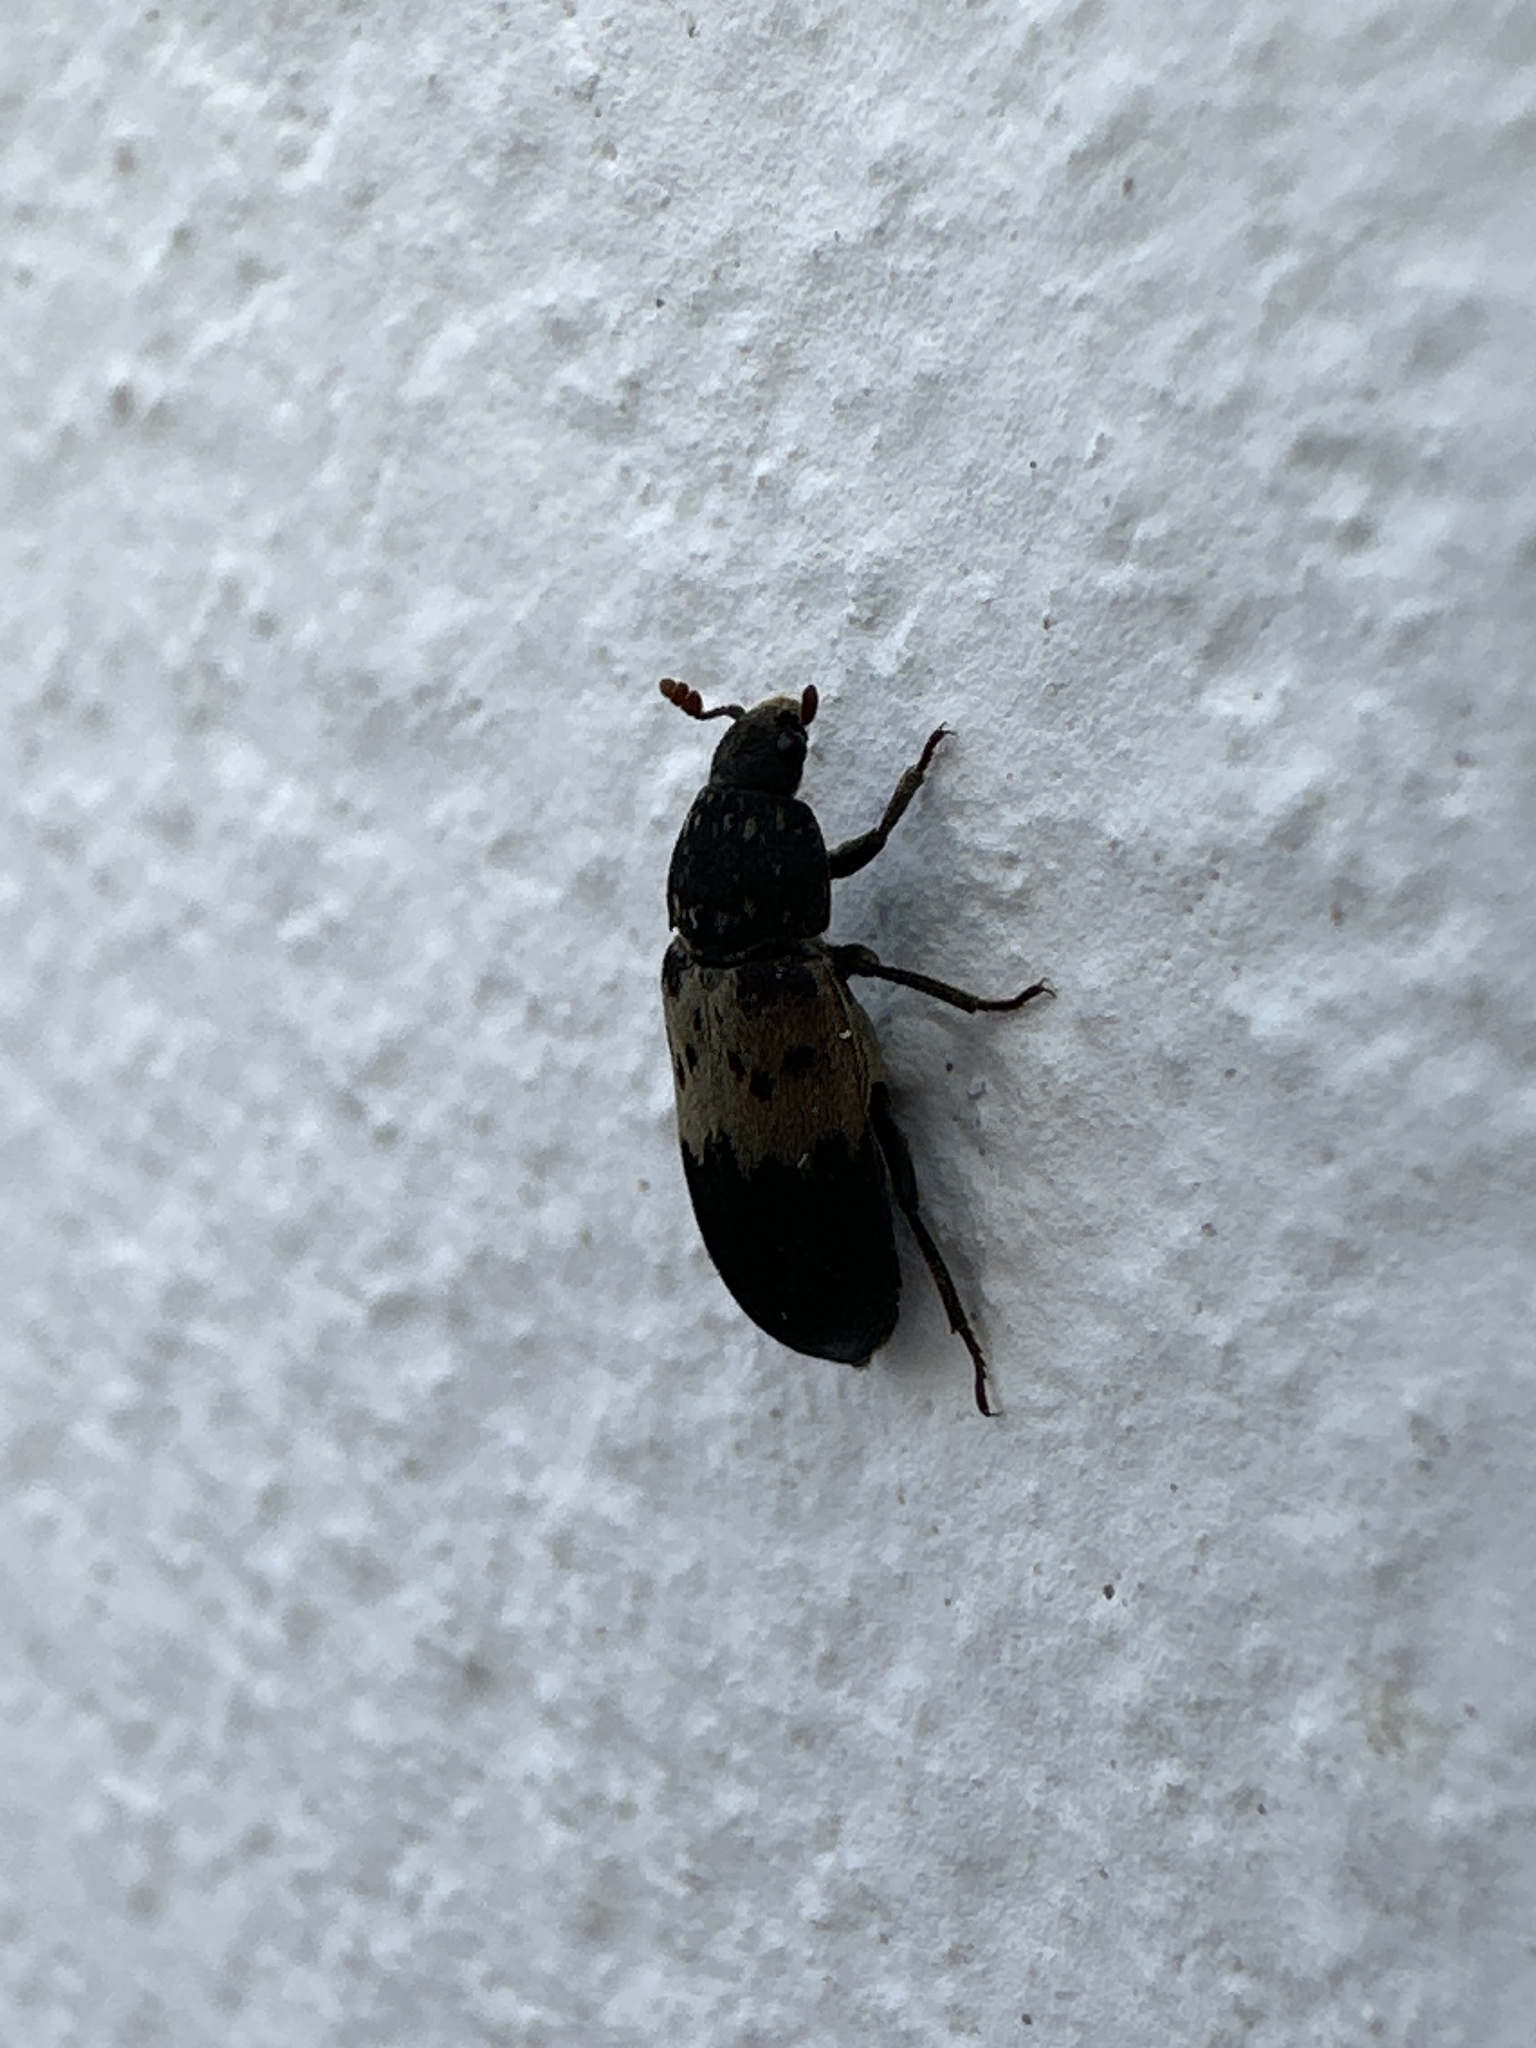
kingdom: Animalia
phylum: Arthropoda
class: Insecta
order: Coleoptera
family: Dermestidae
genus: Dermestes
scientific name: Dermestes lardarius
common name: Larder beetle
